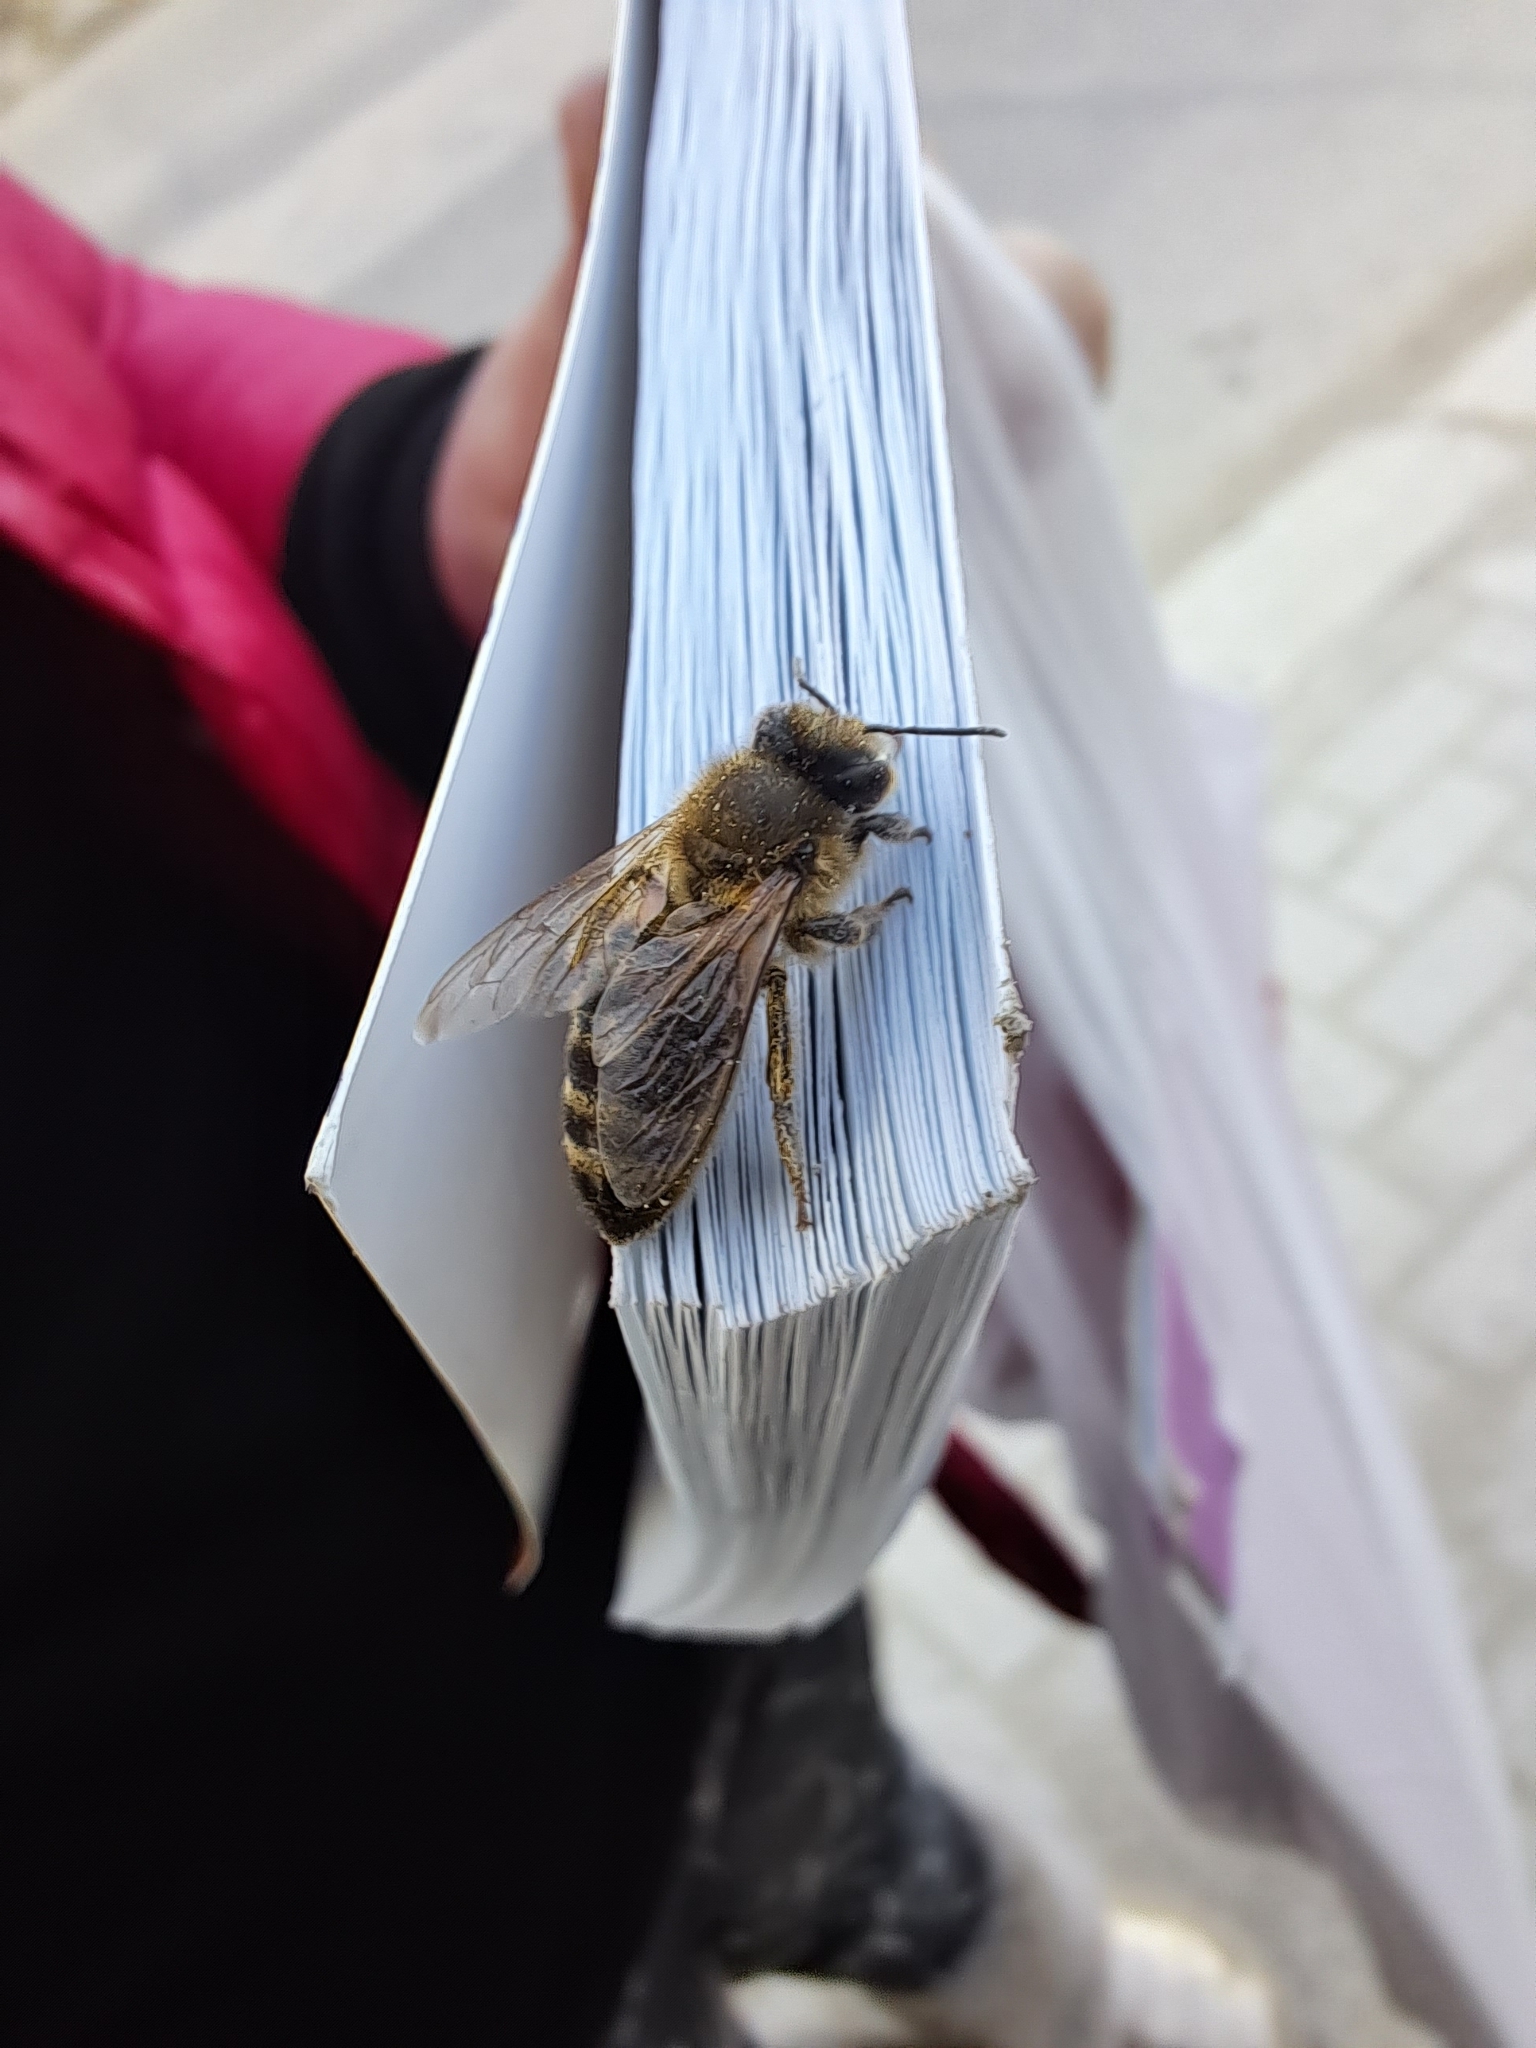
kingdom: Animalia
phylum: Arthropoda
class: Insecta
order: Hymenoptera
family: Apidae
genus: Apis
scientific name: Apis mellifera
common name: Honey bee
